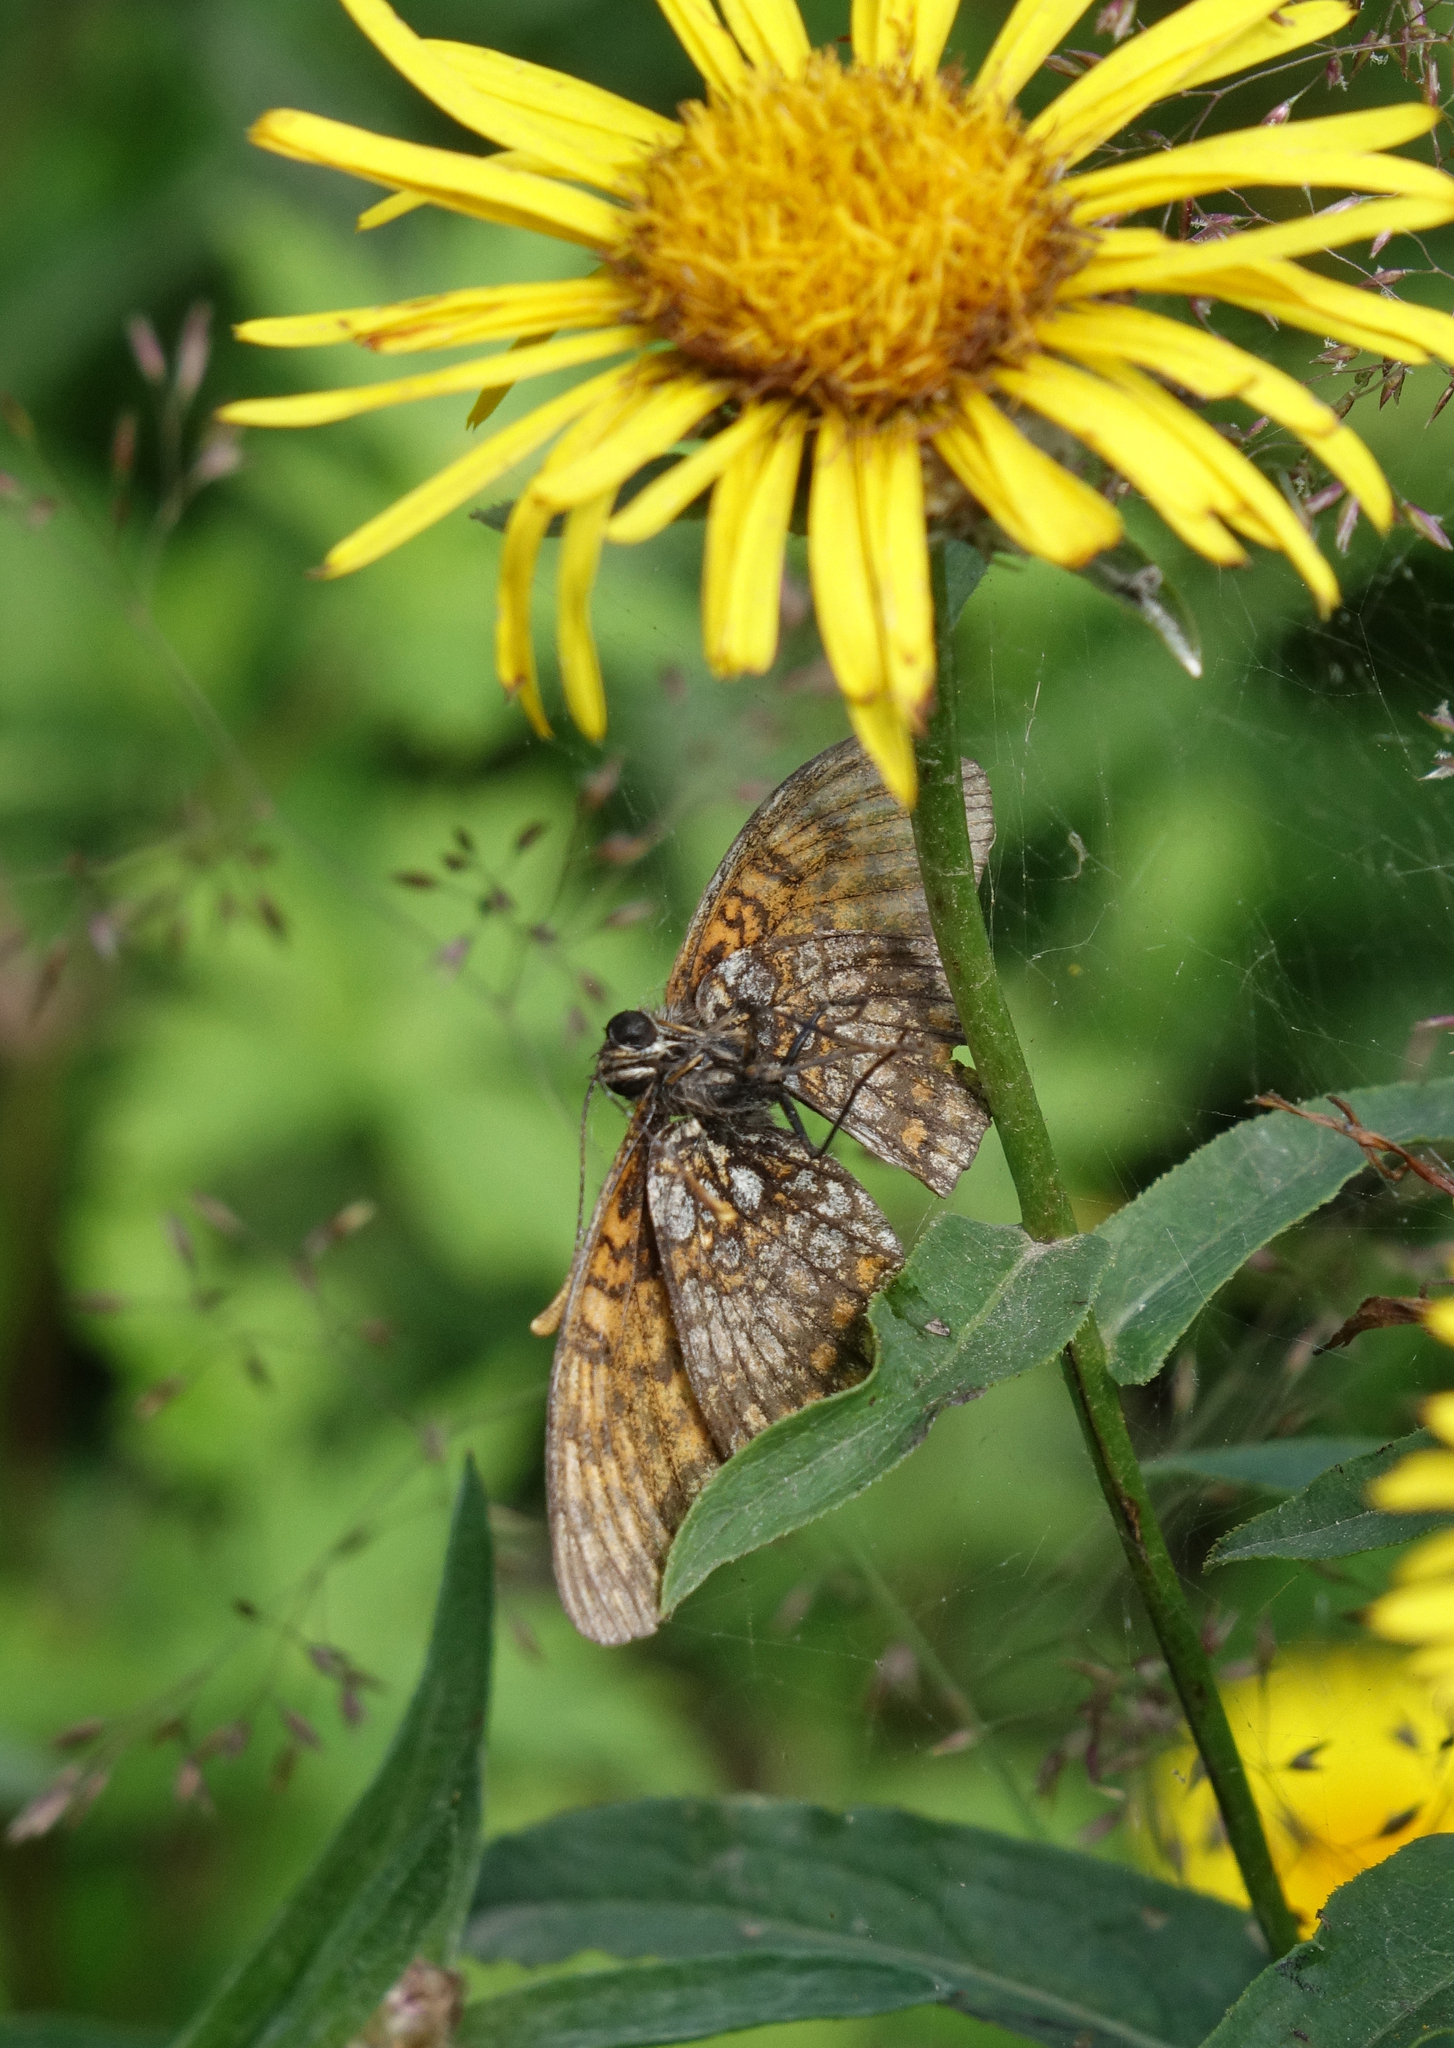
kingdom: Animalia
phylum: Arthropoda
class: Insecta
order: Lepidoptera
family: Nymphalidae
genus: Melitaea
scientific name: Melitaea
